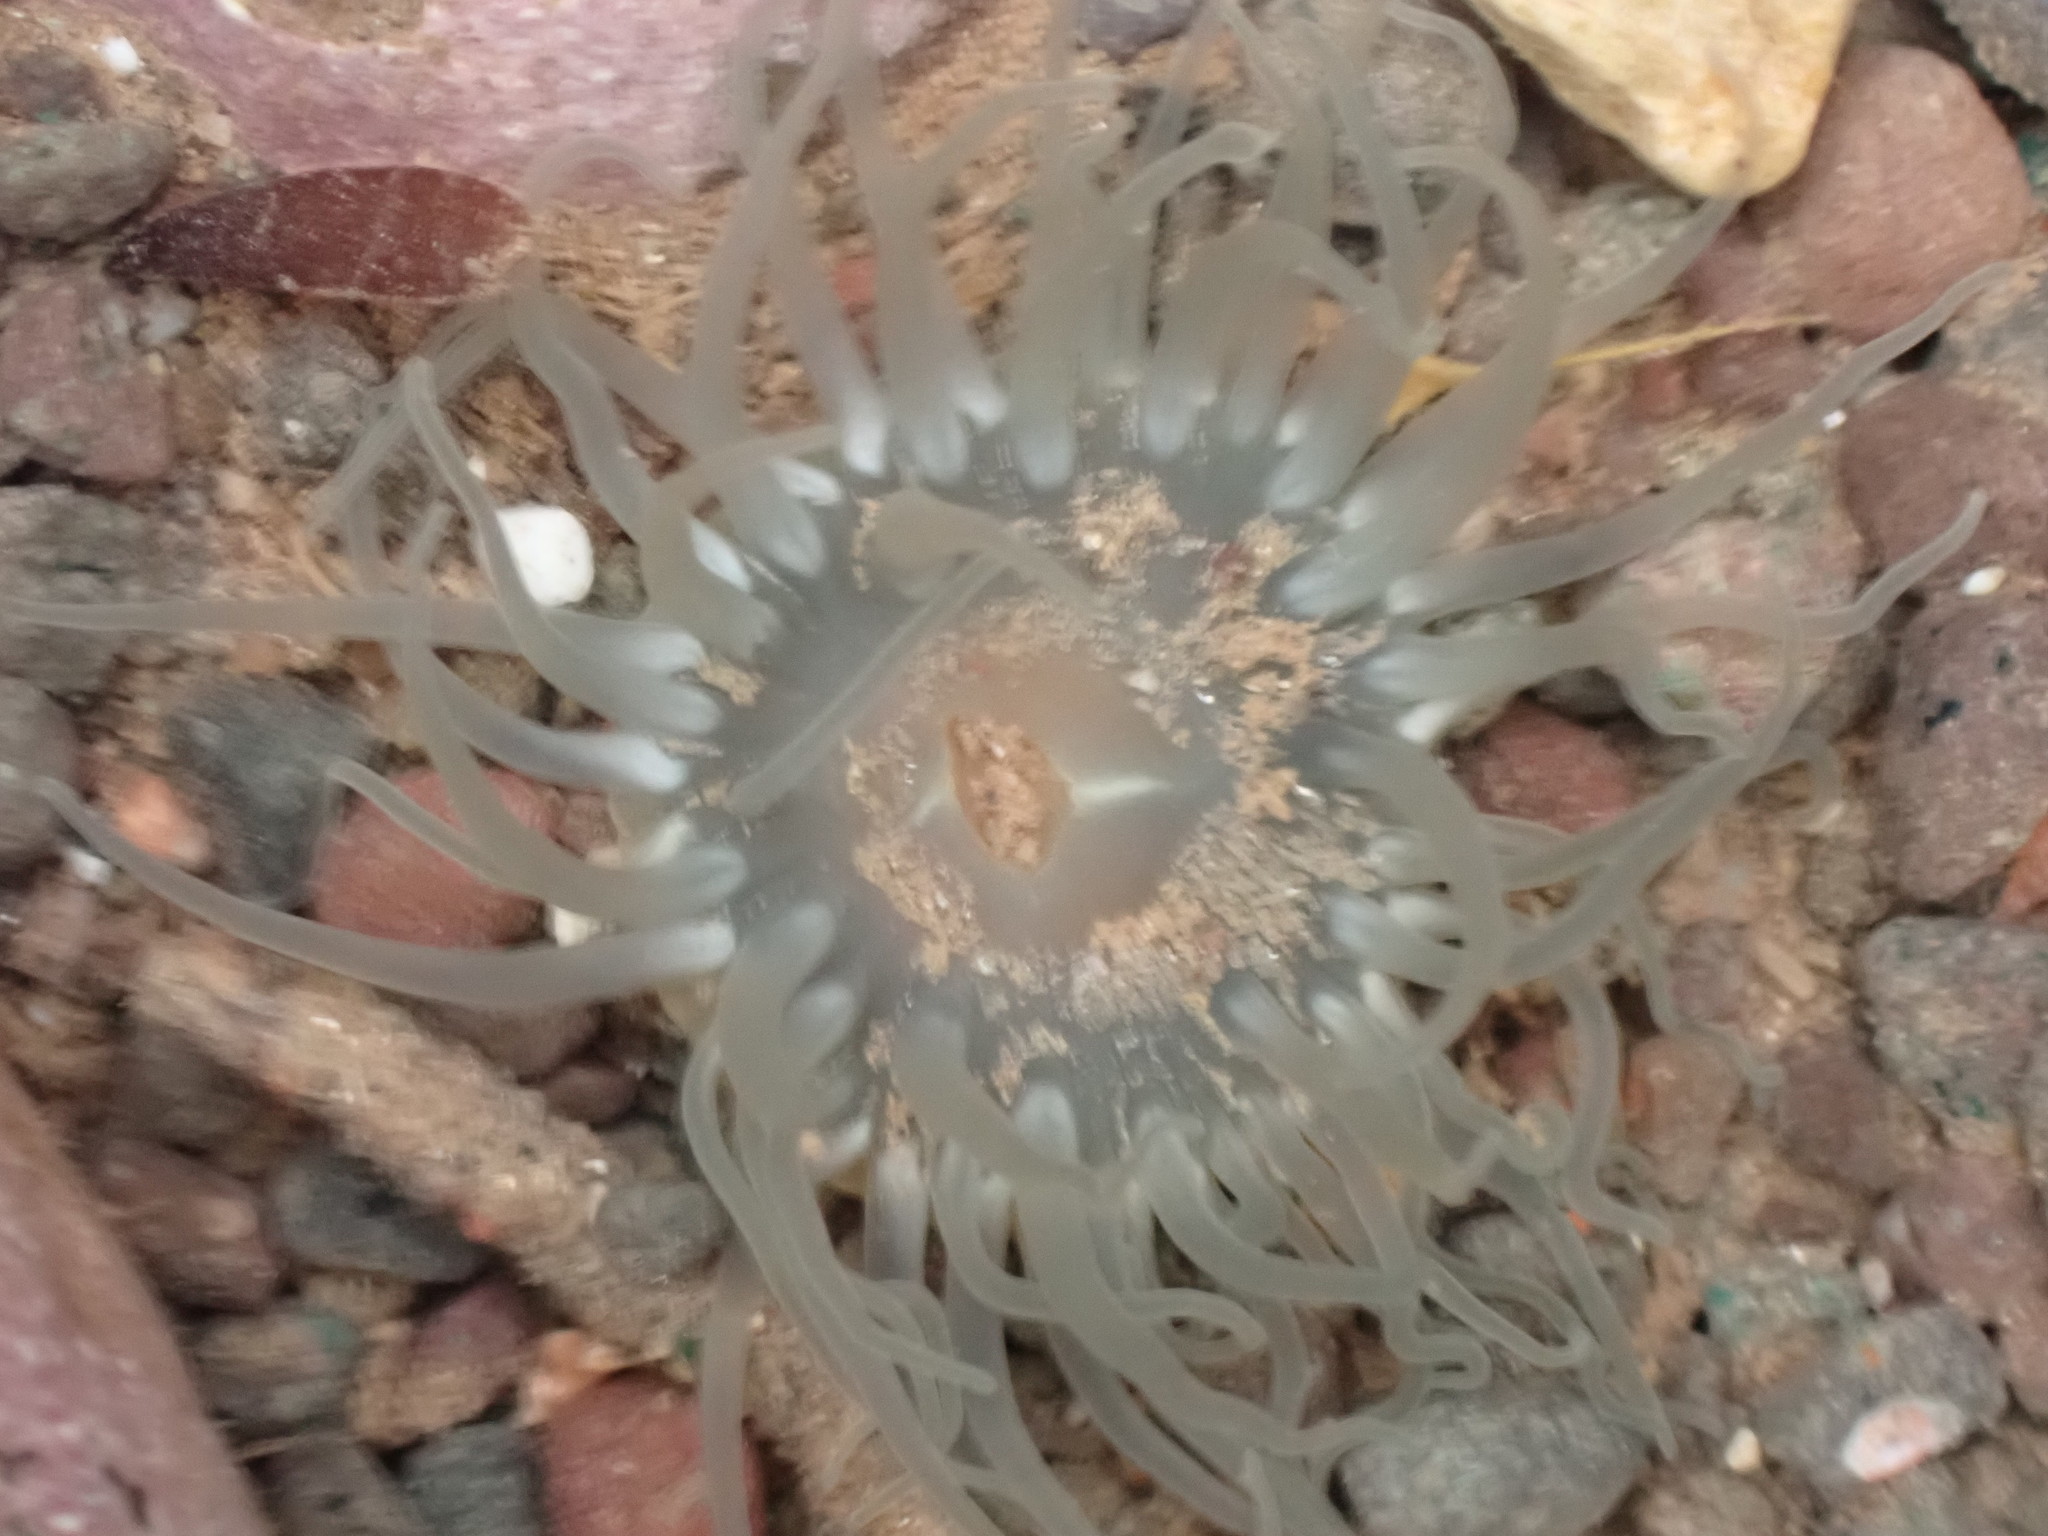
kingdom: Animalia
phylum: Cnidaria
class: Anthozoa
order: Actiniaria
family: Actiniidae
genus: Aulactinia
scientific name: Aulactinia stella
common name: Silver-spotted sea anemone
